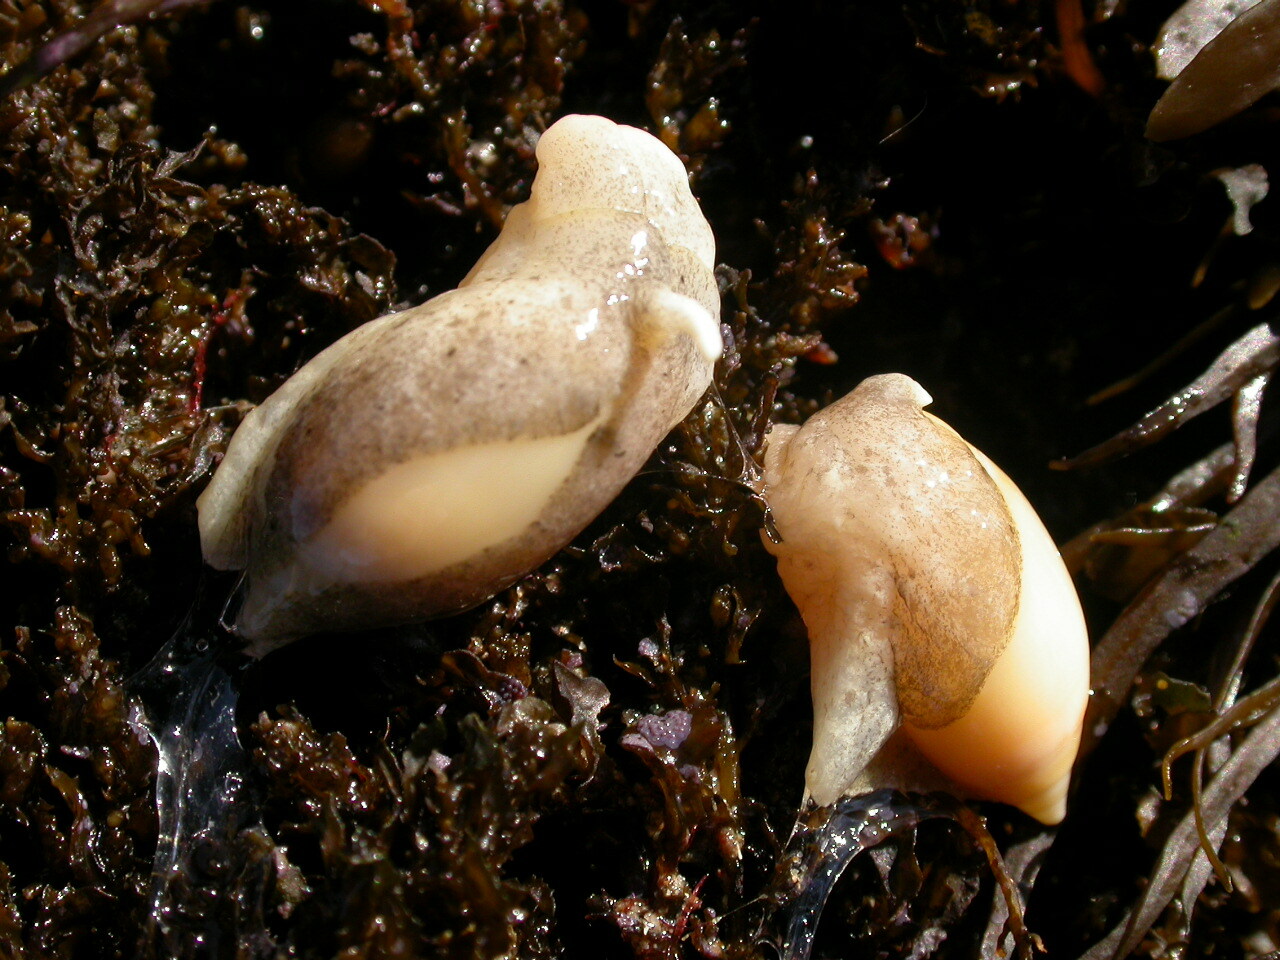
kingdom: Animalia
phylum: Mollusca
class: Gastropoda
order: Neogastropoda
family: Ancillariidae
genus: Amalda
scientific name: Amalda marginata
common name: Margin ancilla
